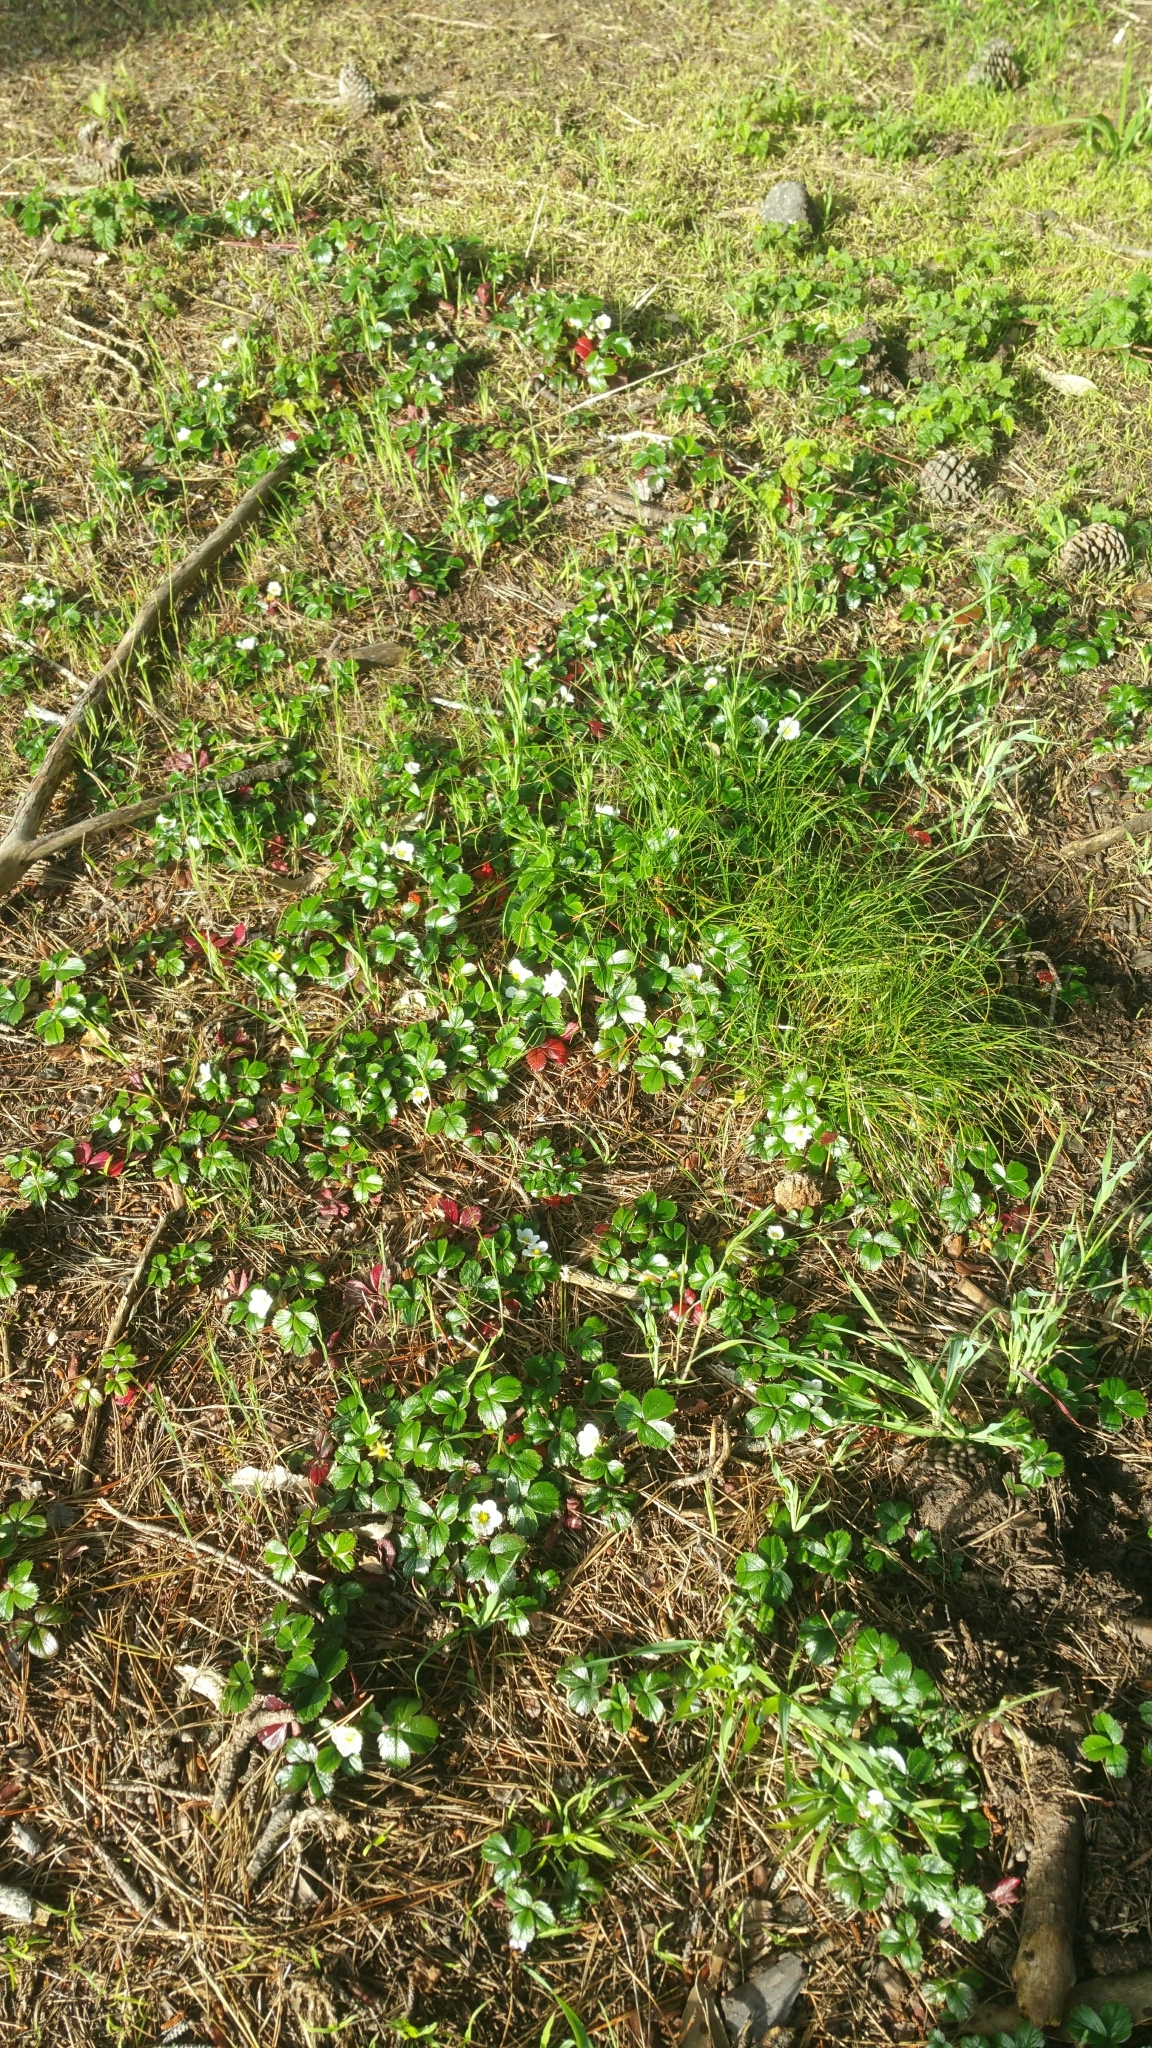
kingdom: Plantae
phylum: Tracheophyta
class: Magnoliopsida
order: Rosales
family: Rosaceae
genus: Fragaria
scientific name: Fragaria chiloensis
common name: Beach strawberry
